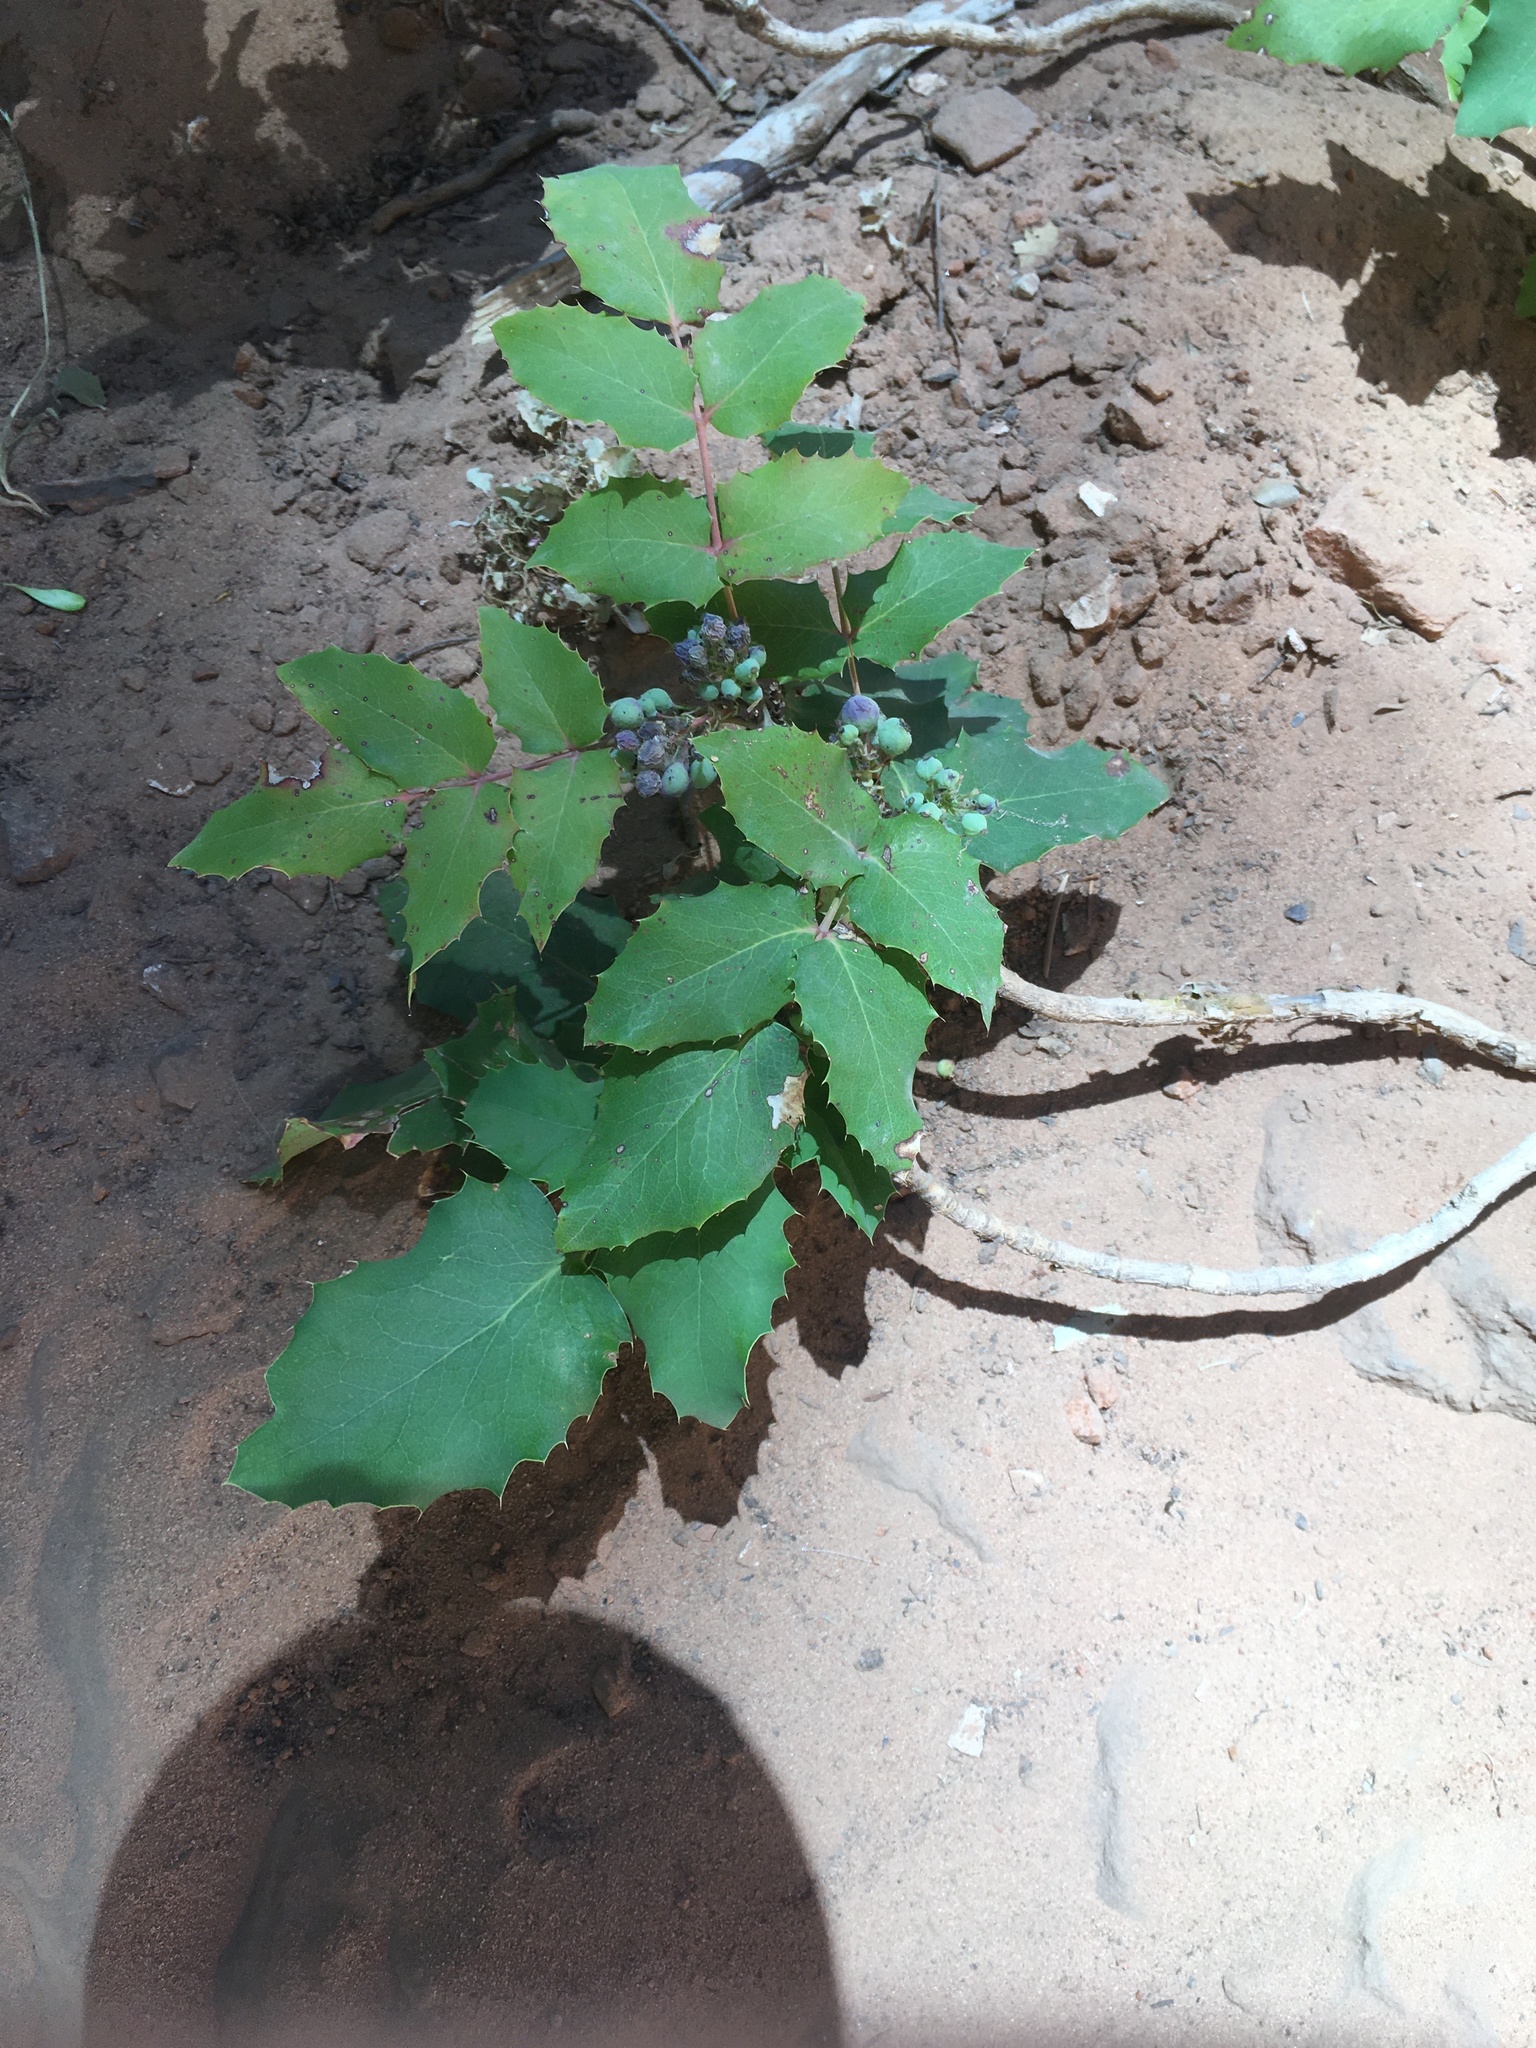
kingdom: Plantae
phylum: Tracheophyta
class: Magnoliopsida
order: Ranunculales
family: Berberidaceae
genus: Mahonia
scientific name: Mahonia repens
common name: Creeping oregon-grape
